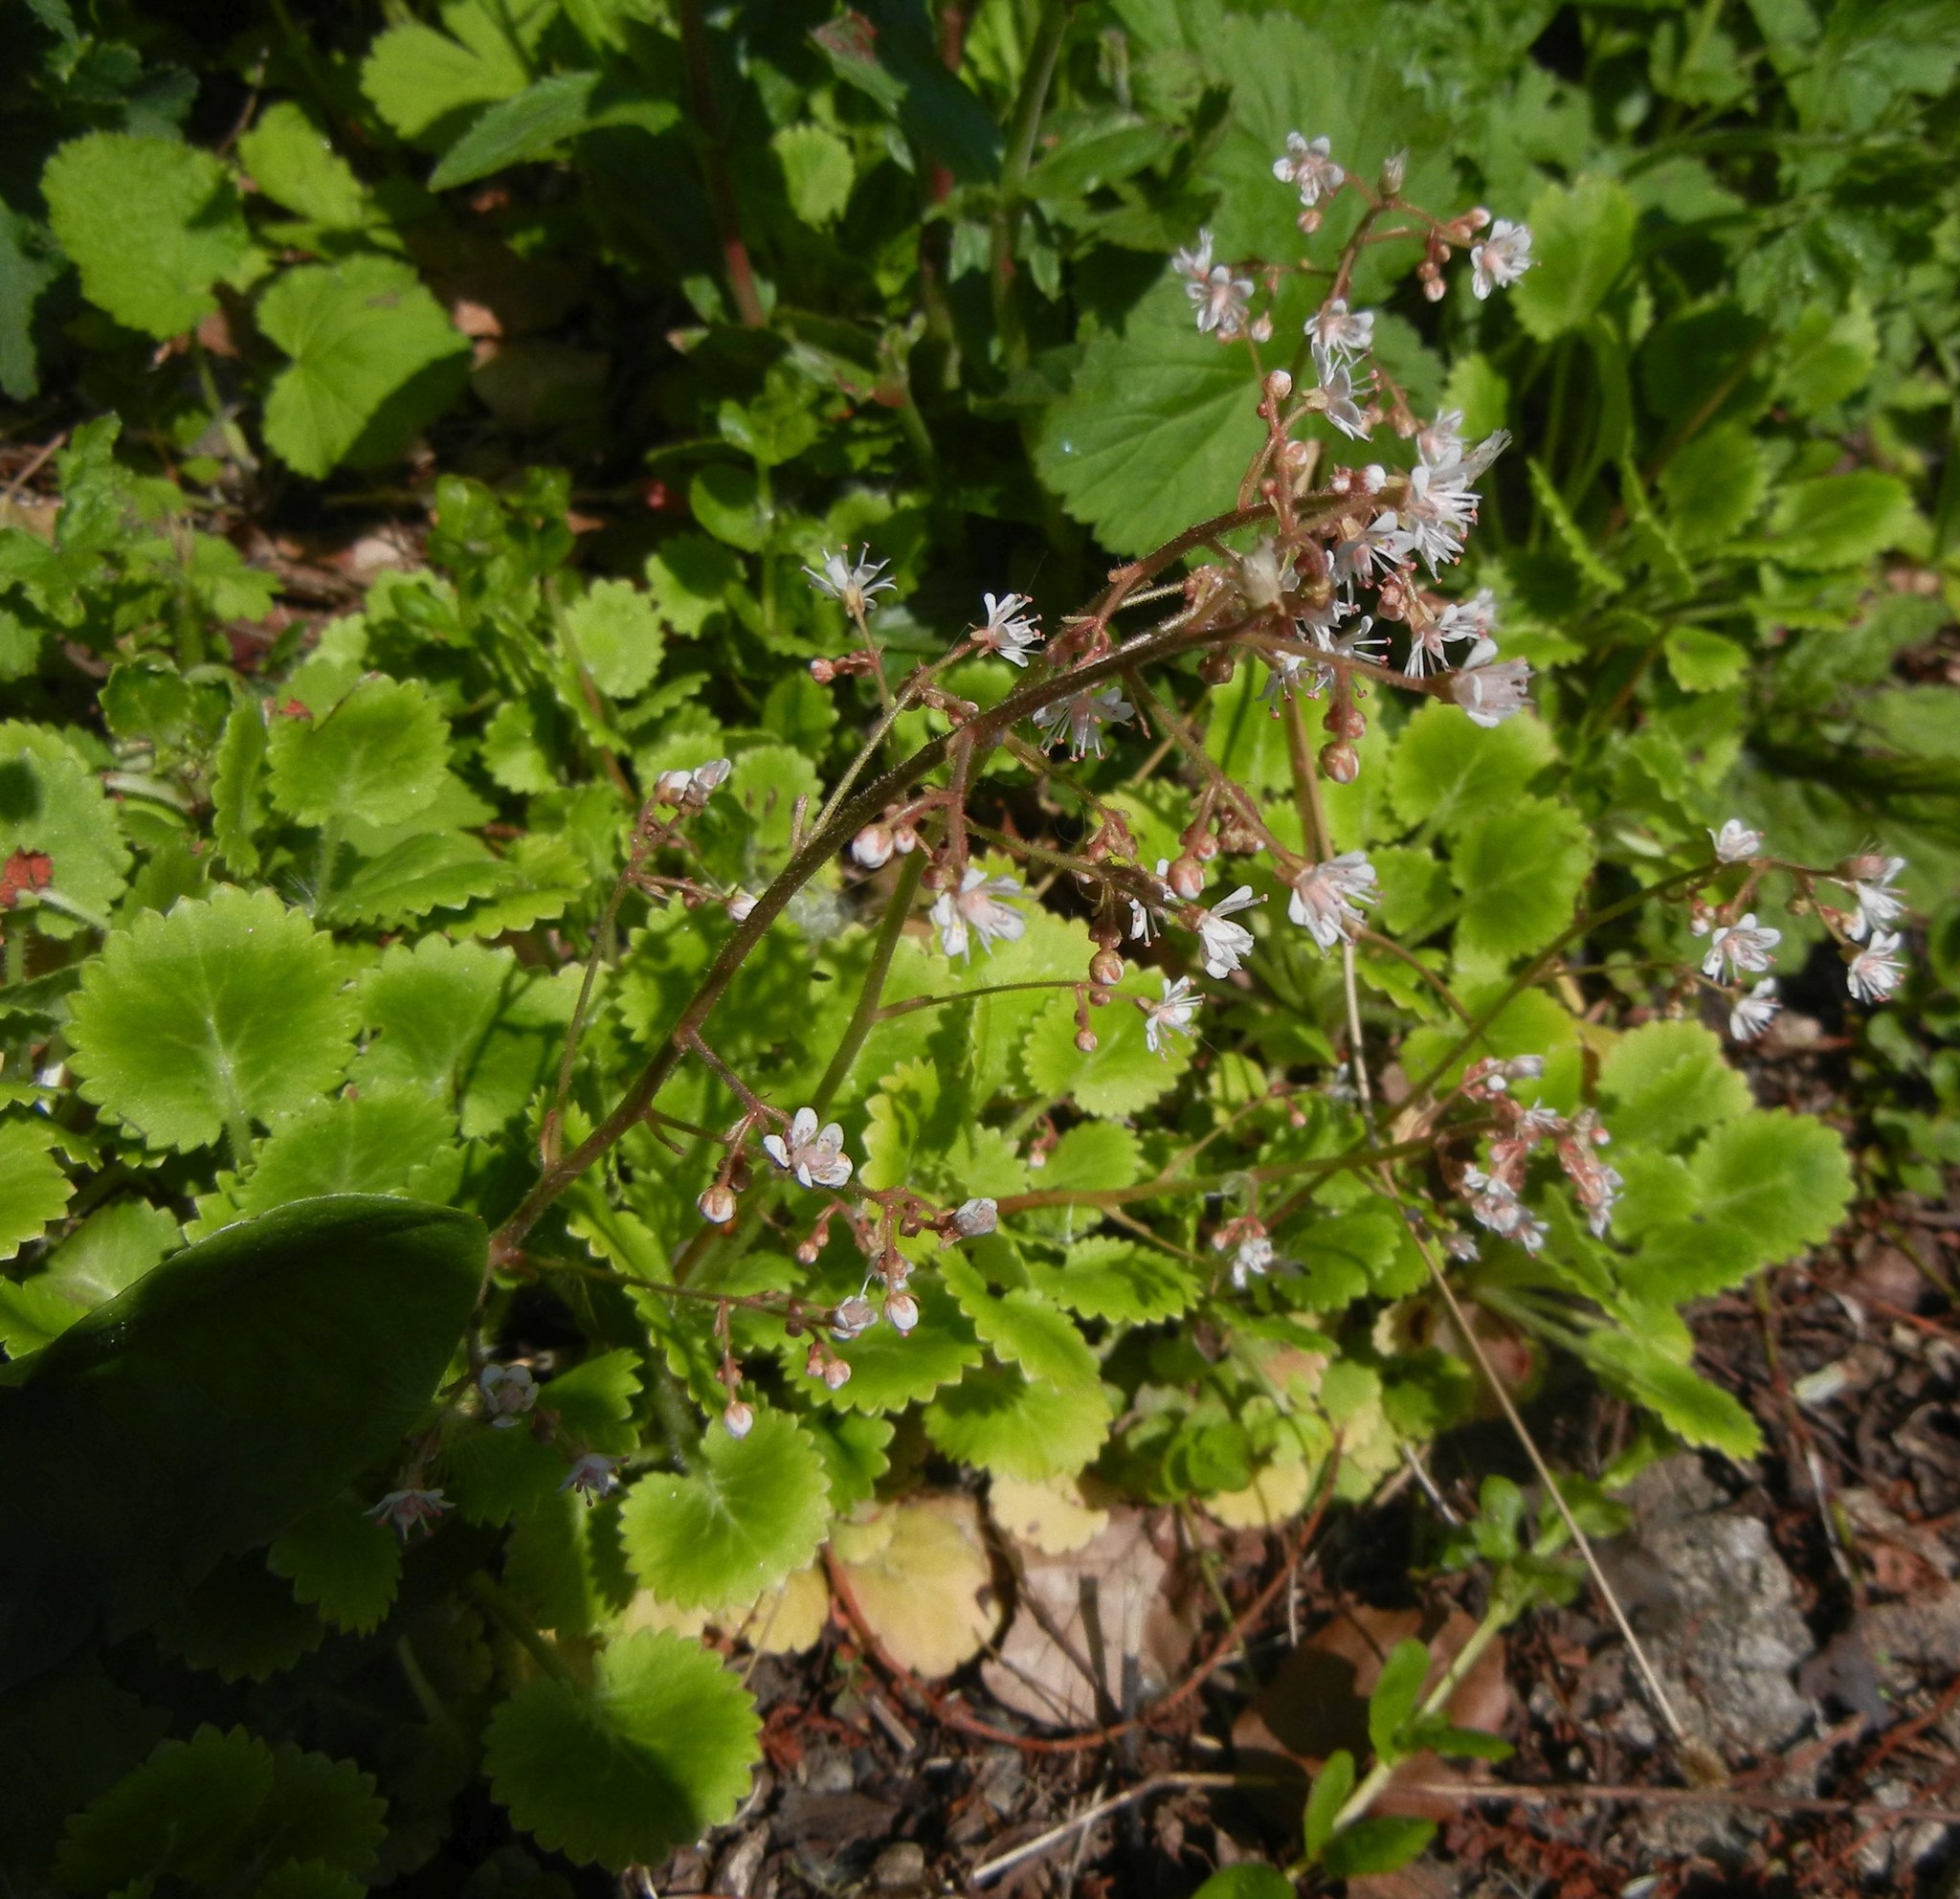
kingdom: Plantae
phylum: Tracheophyta
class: Magnoliopsida
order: Saxifragales
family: Saxifragaceae
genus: Saxifraga
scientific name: Saxifraga urbium
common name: Londonpride
